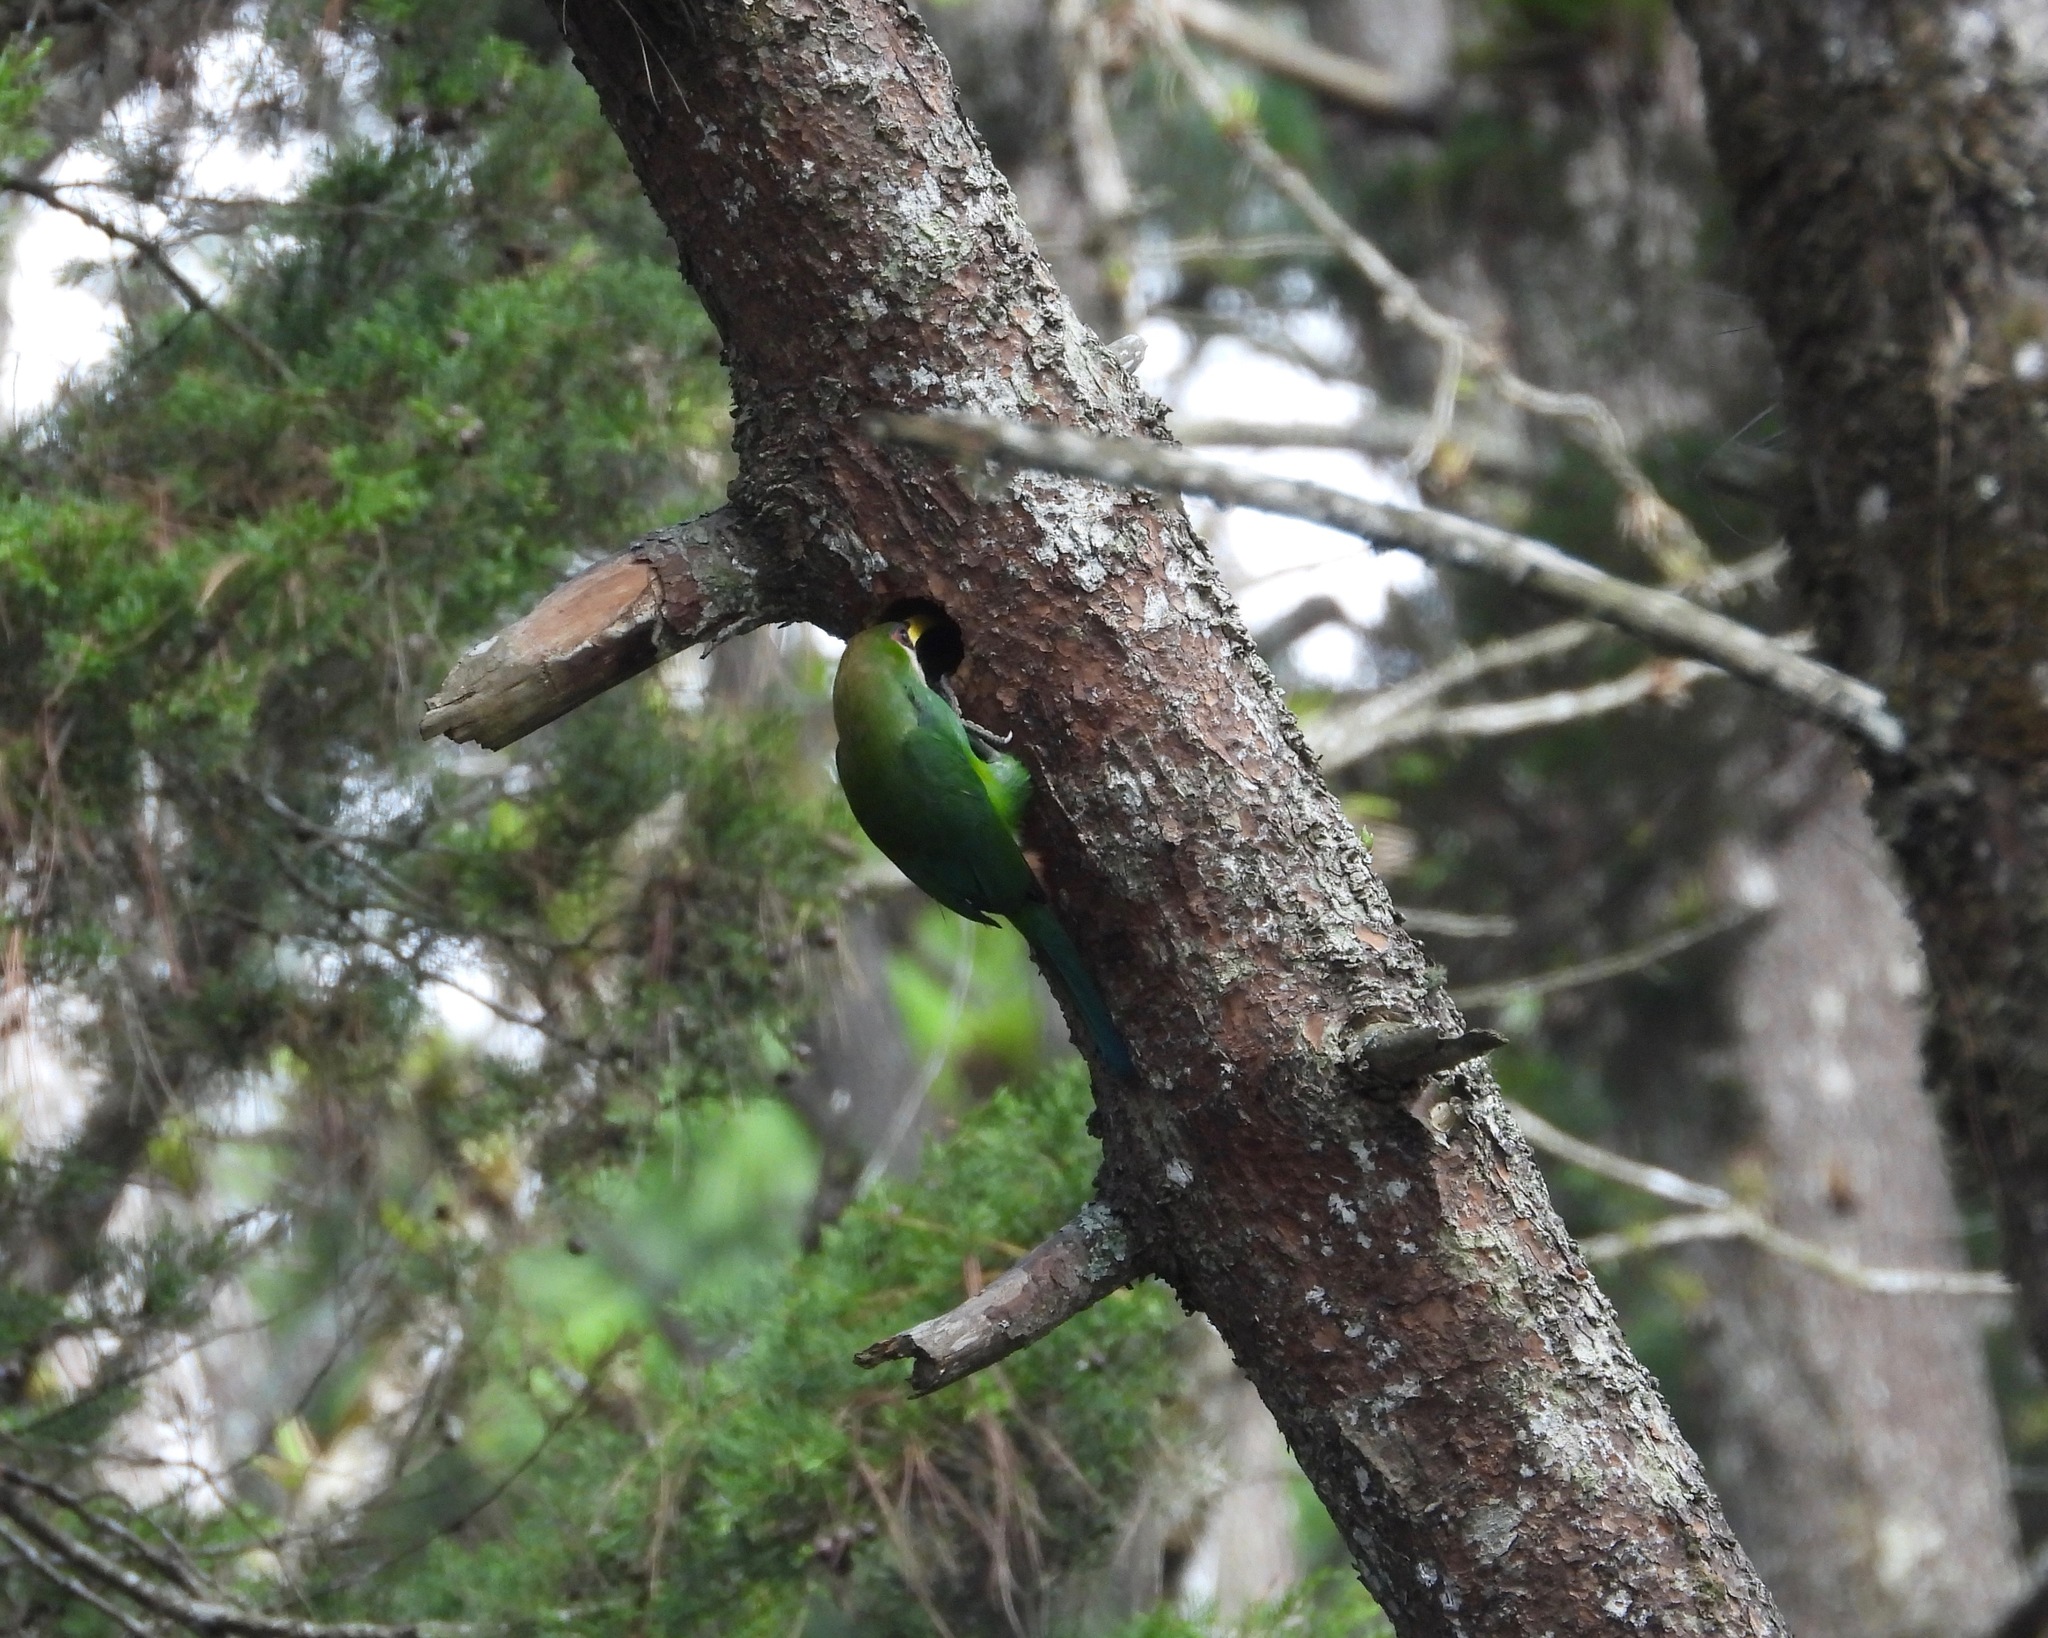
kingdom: Animalia
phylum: Chordata
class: Aves
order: Piciformes
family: Ramphastidae
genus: Aulacorhynchus
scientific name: Aulacorhynchus prasinus
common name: Emerald toucanet
